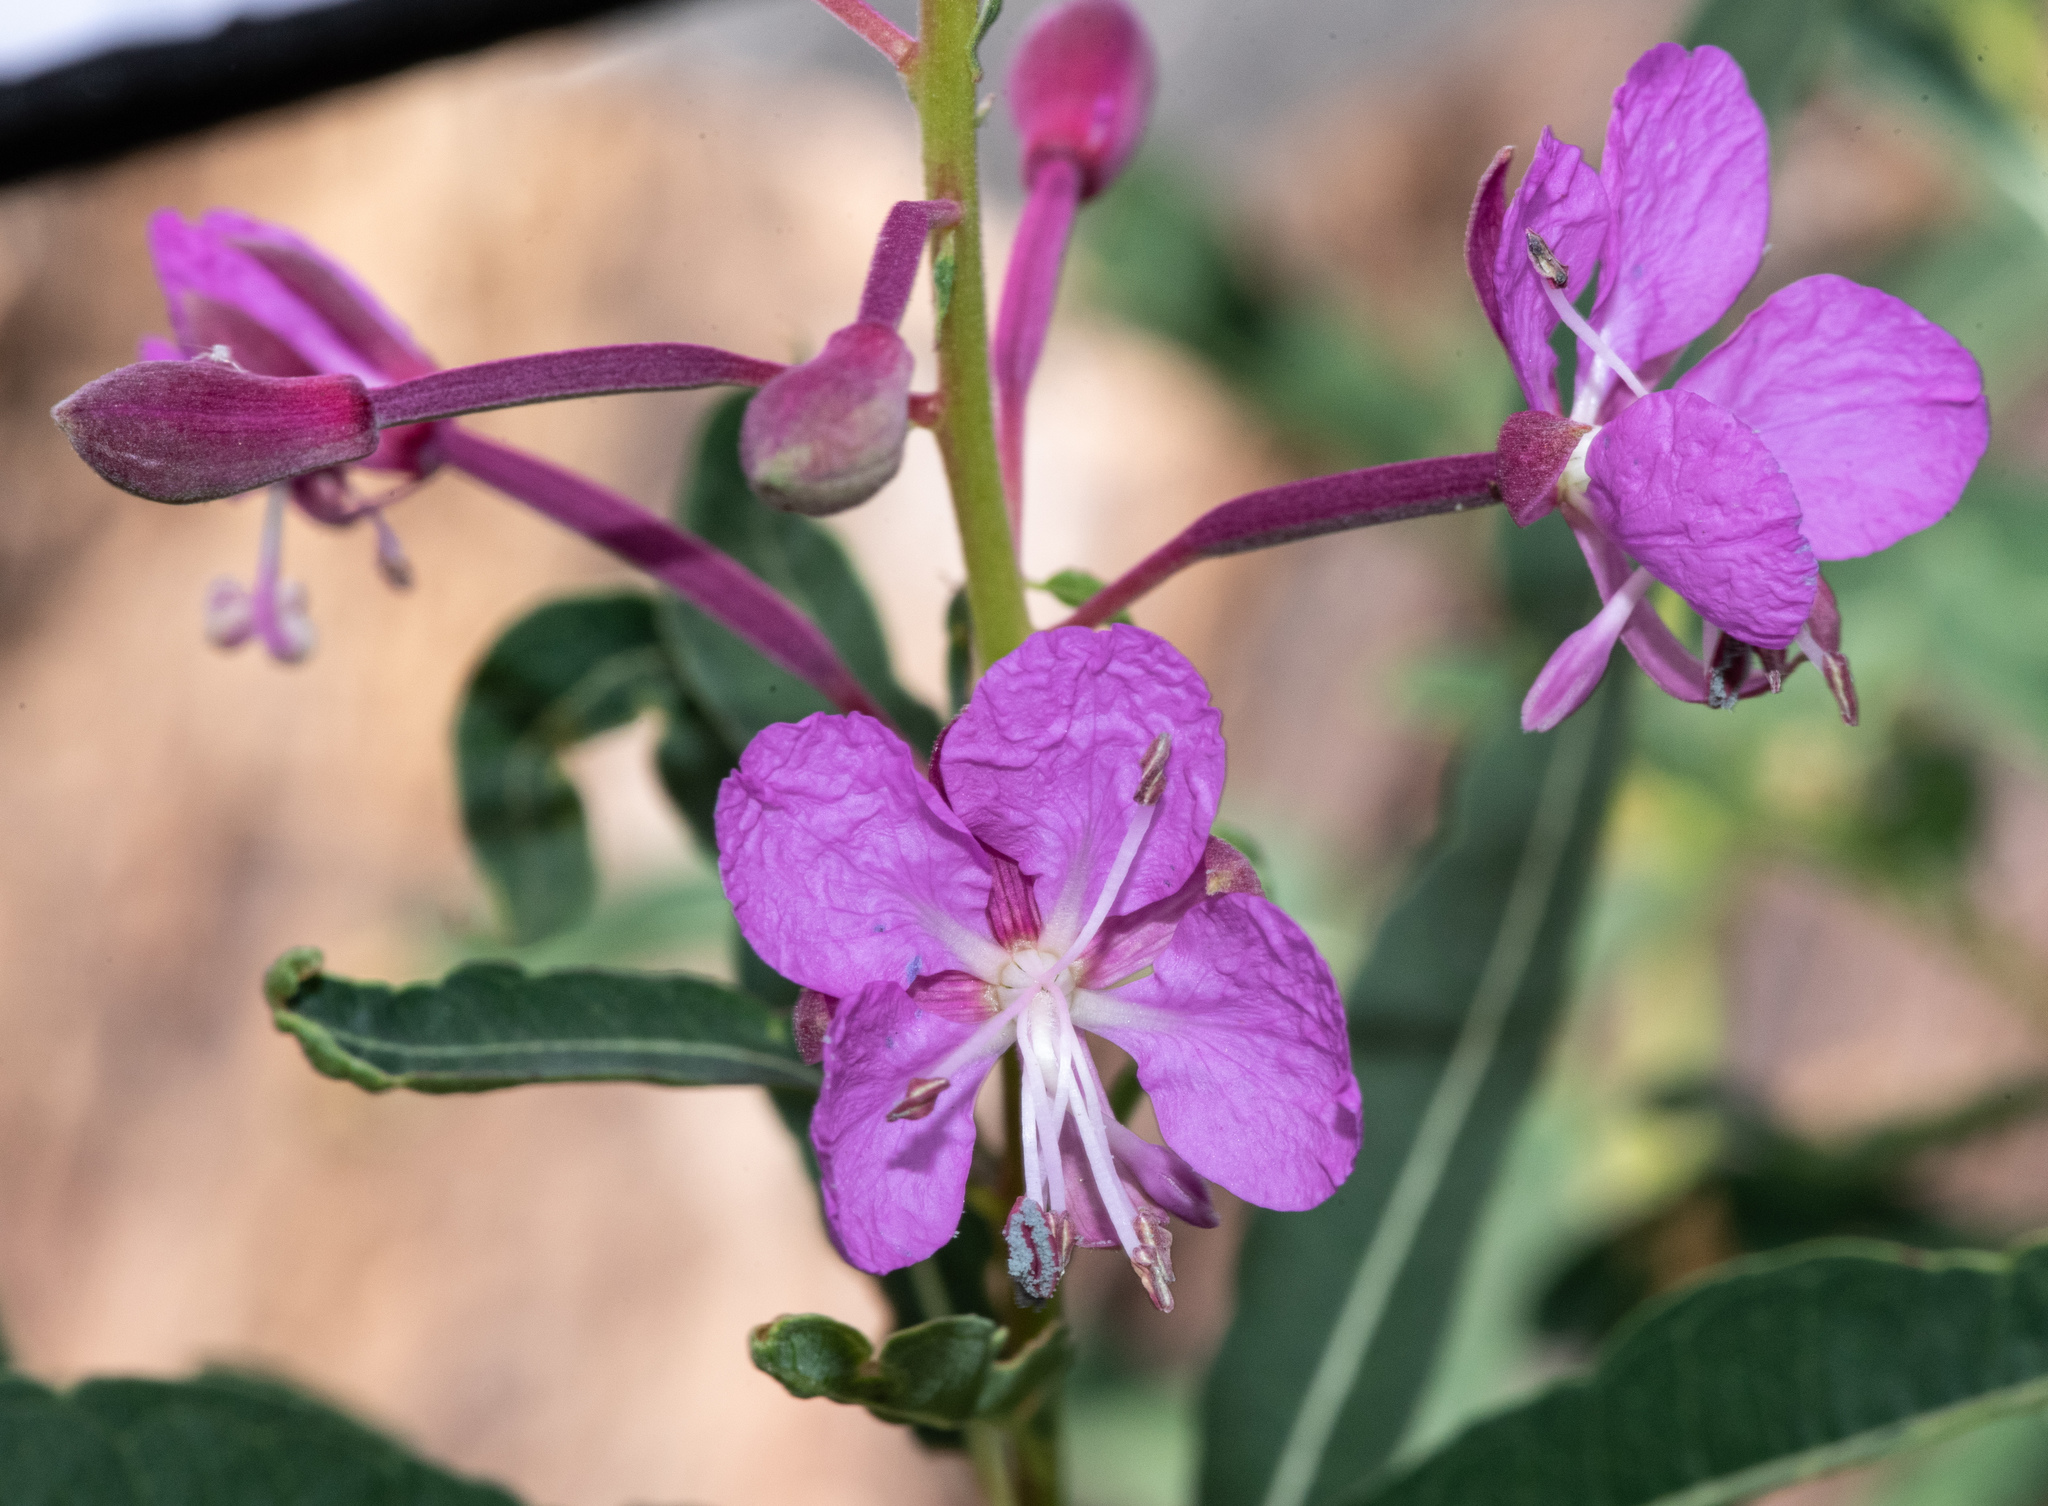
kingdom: Plantae
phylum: Tracheophyta
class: Magnoliopsida
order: Myrtales
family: Onagraceae
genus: Chamaenerion
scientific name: Chamaenerion angustifolium
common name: Fireweed
